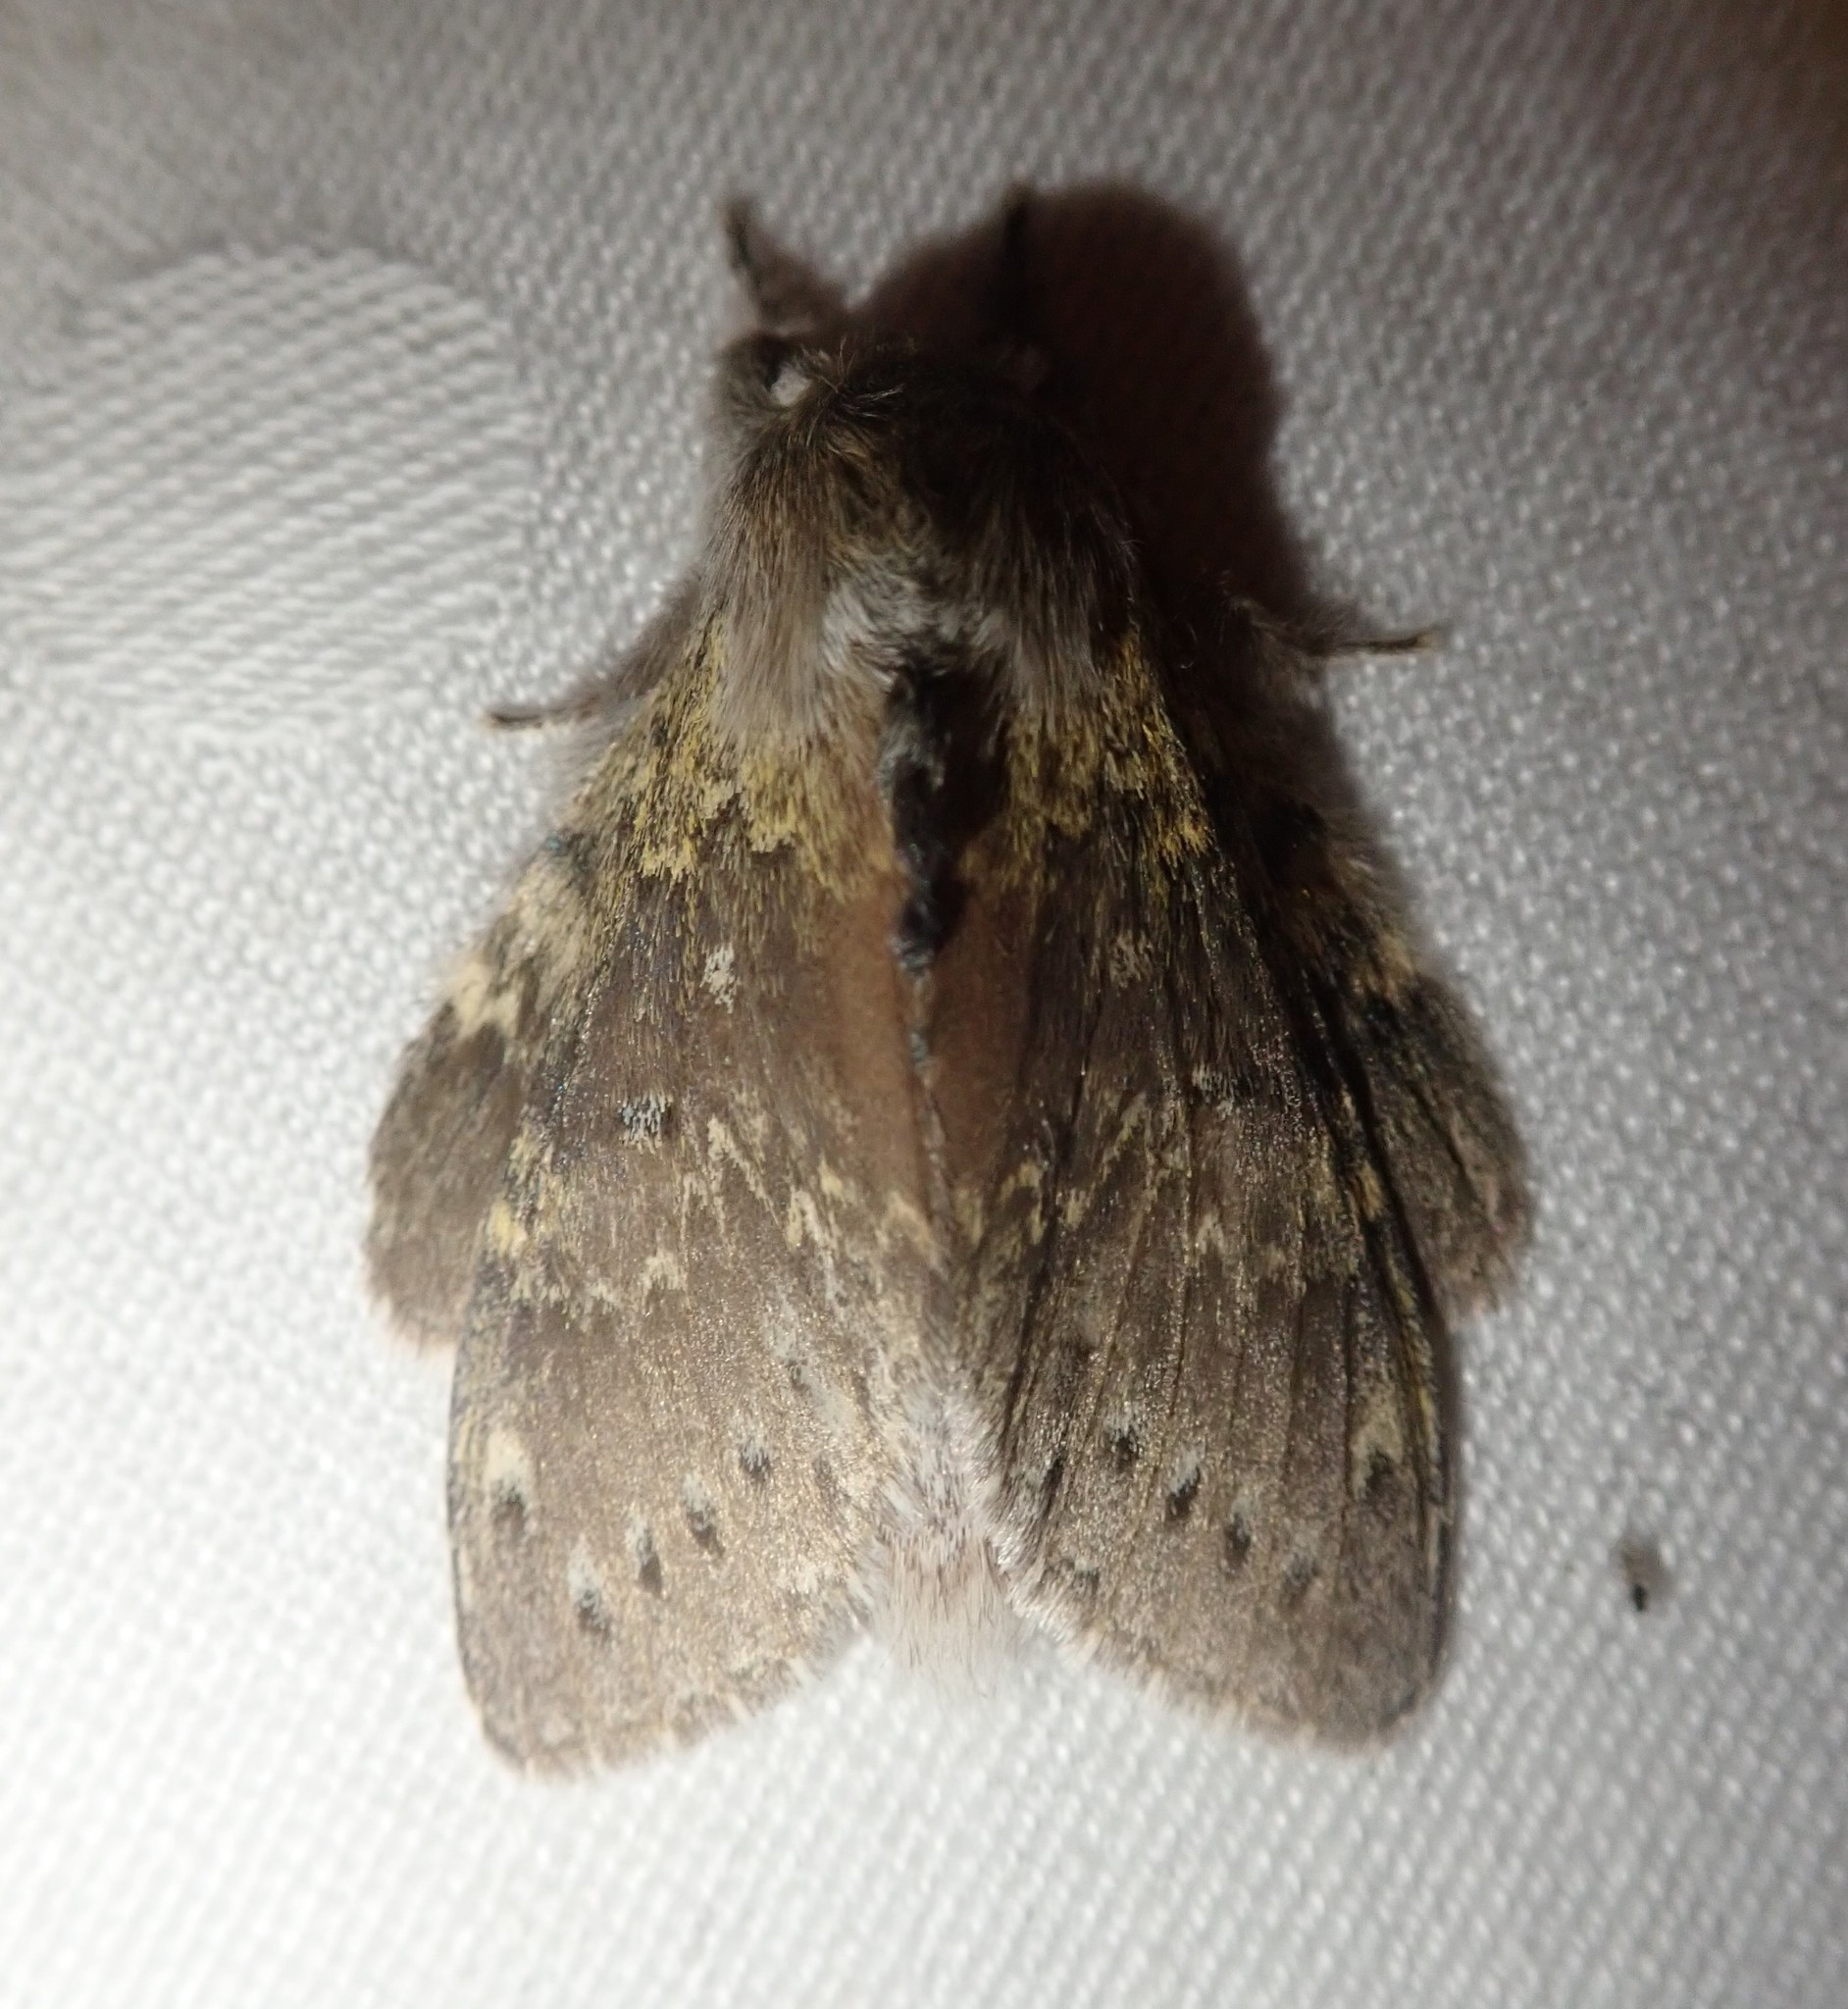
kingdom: Animalia
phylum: Arthropoda
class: Insecta
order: Lepidoptera
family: Notodontidae
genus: Stauropus
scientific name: Stauropus fagi
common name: Lobster moth
